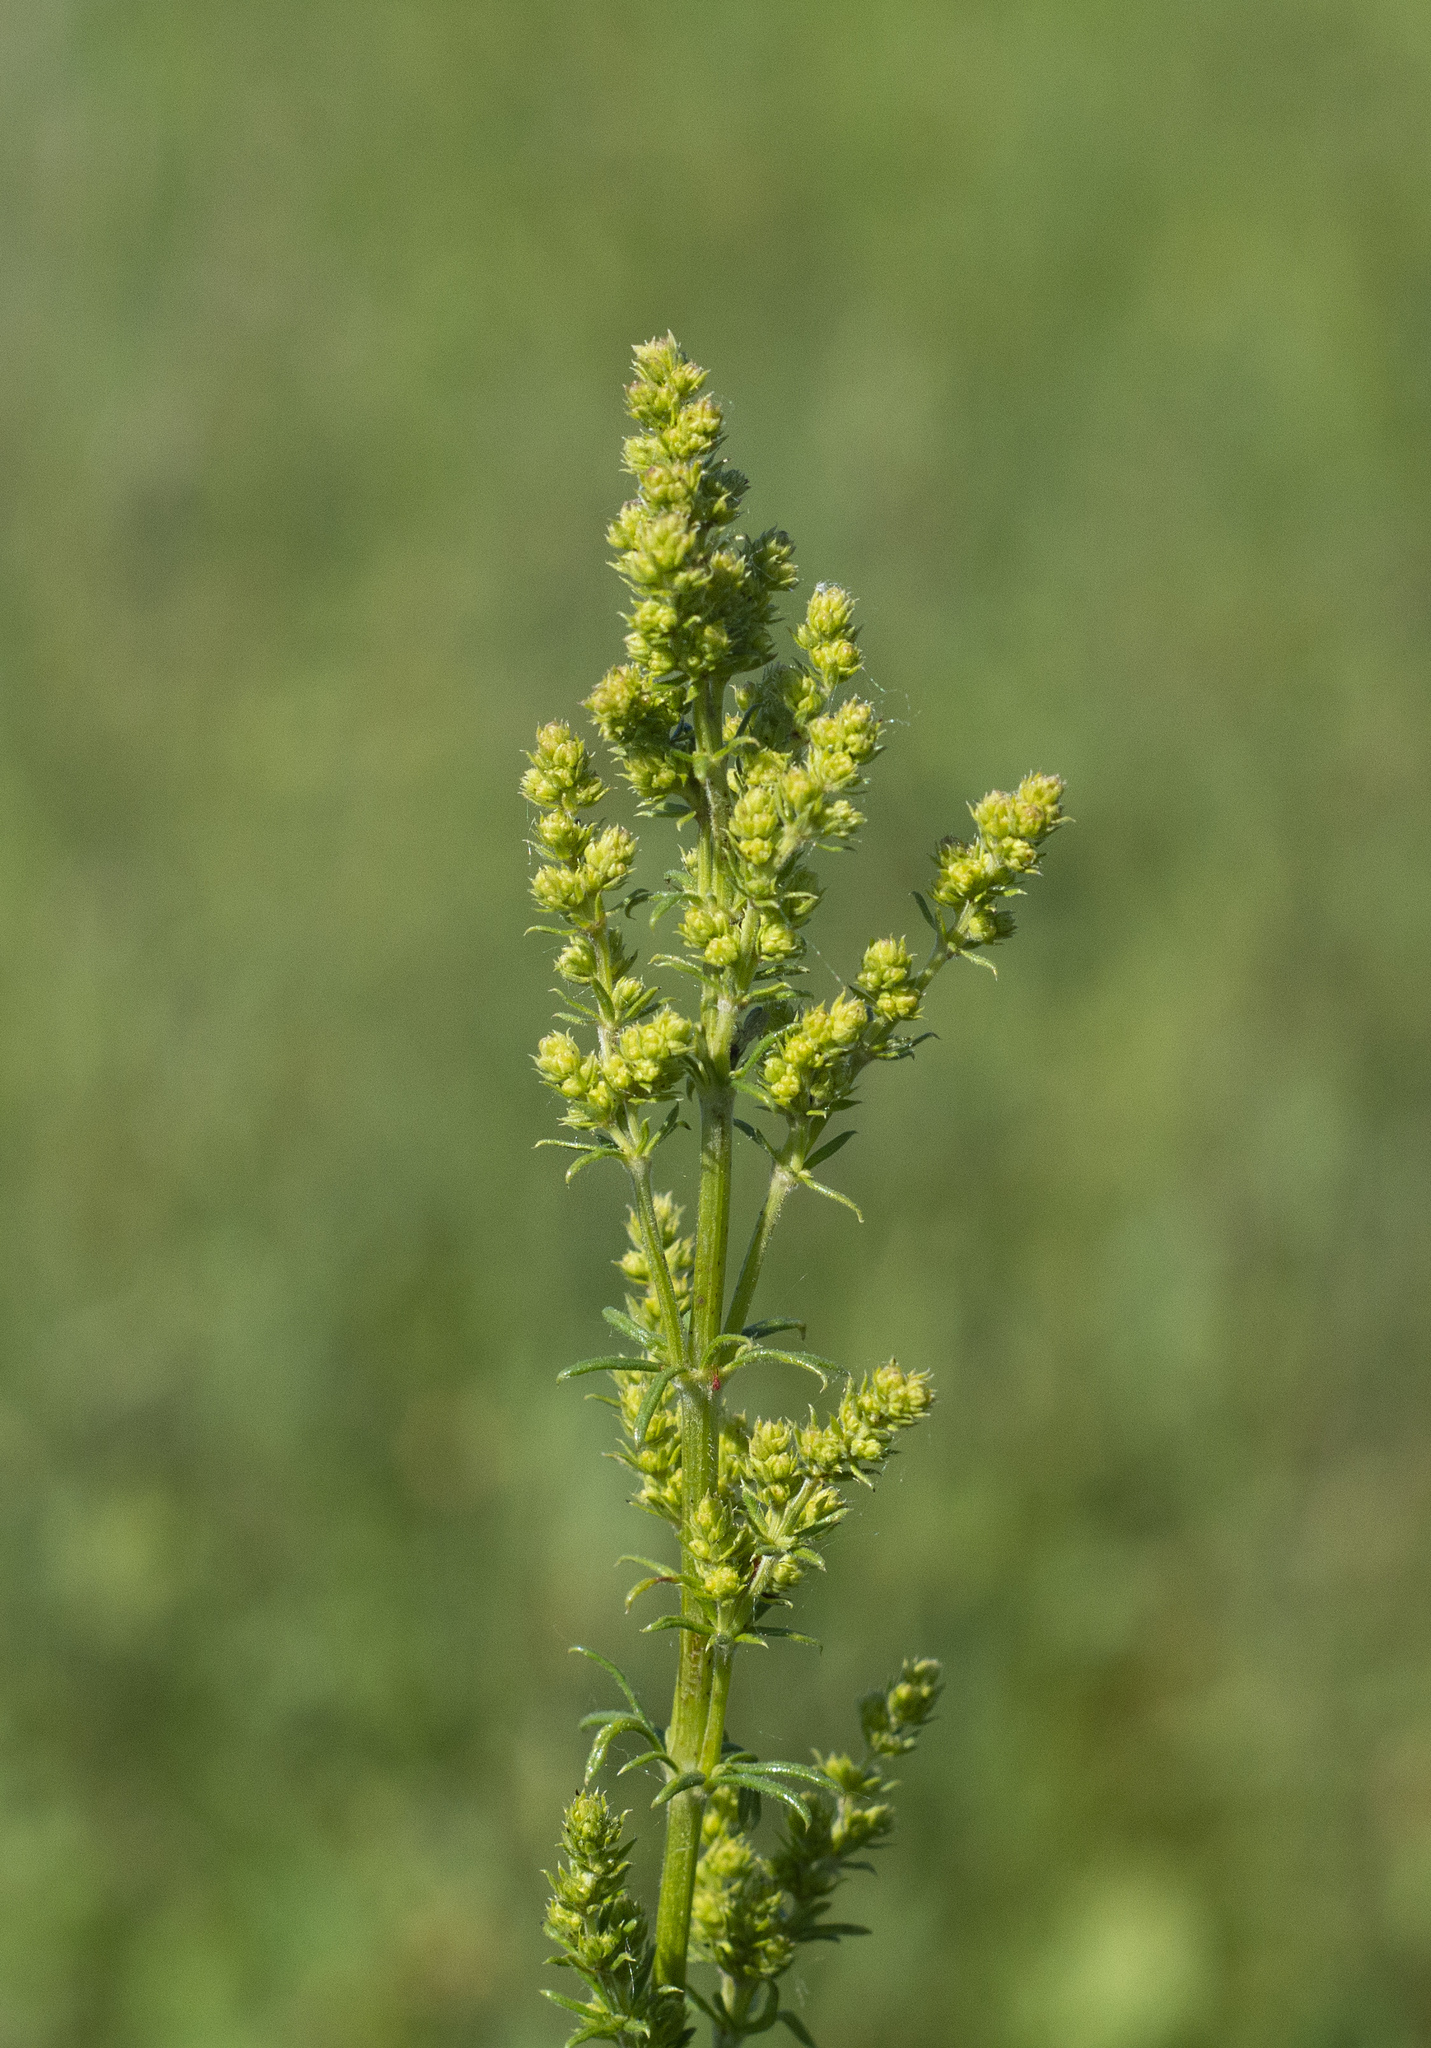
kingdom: Plantae
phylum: Tracheophyta
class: Magnoliopsida
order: Gentianales
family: Rubiaceae
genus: Galium
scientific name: Galium verum
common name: Lady's bedstraw
